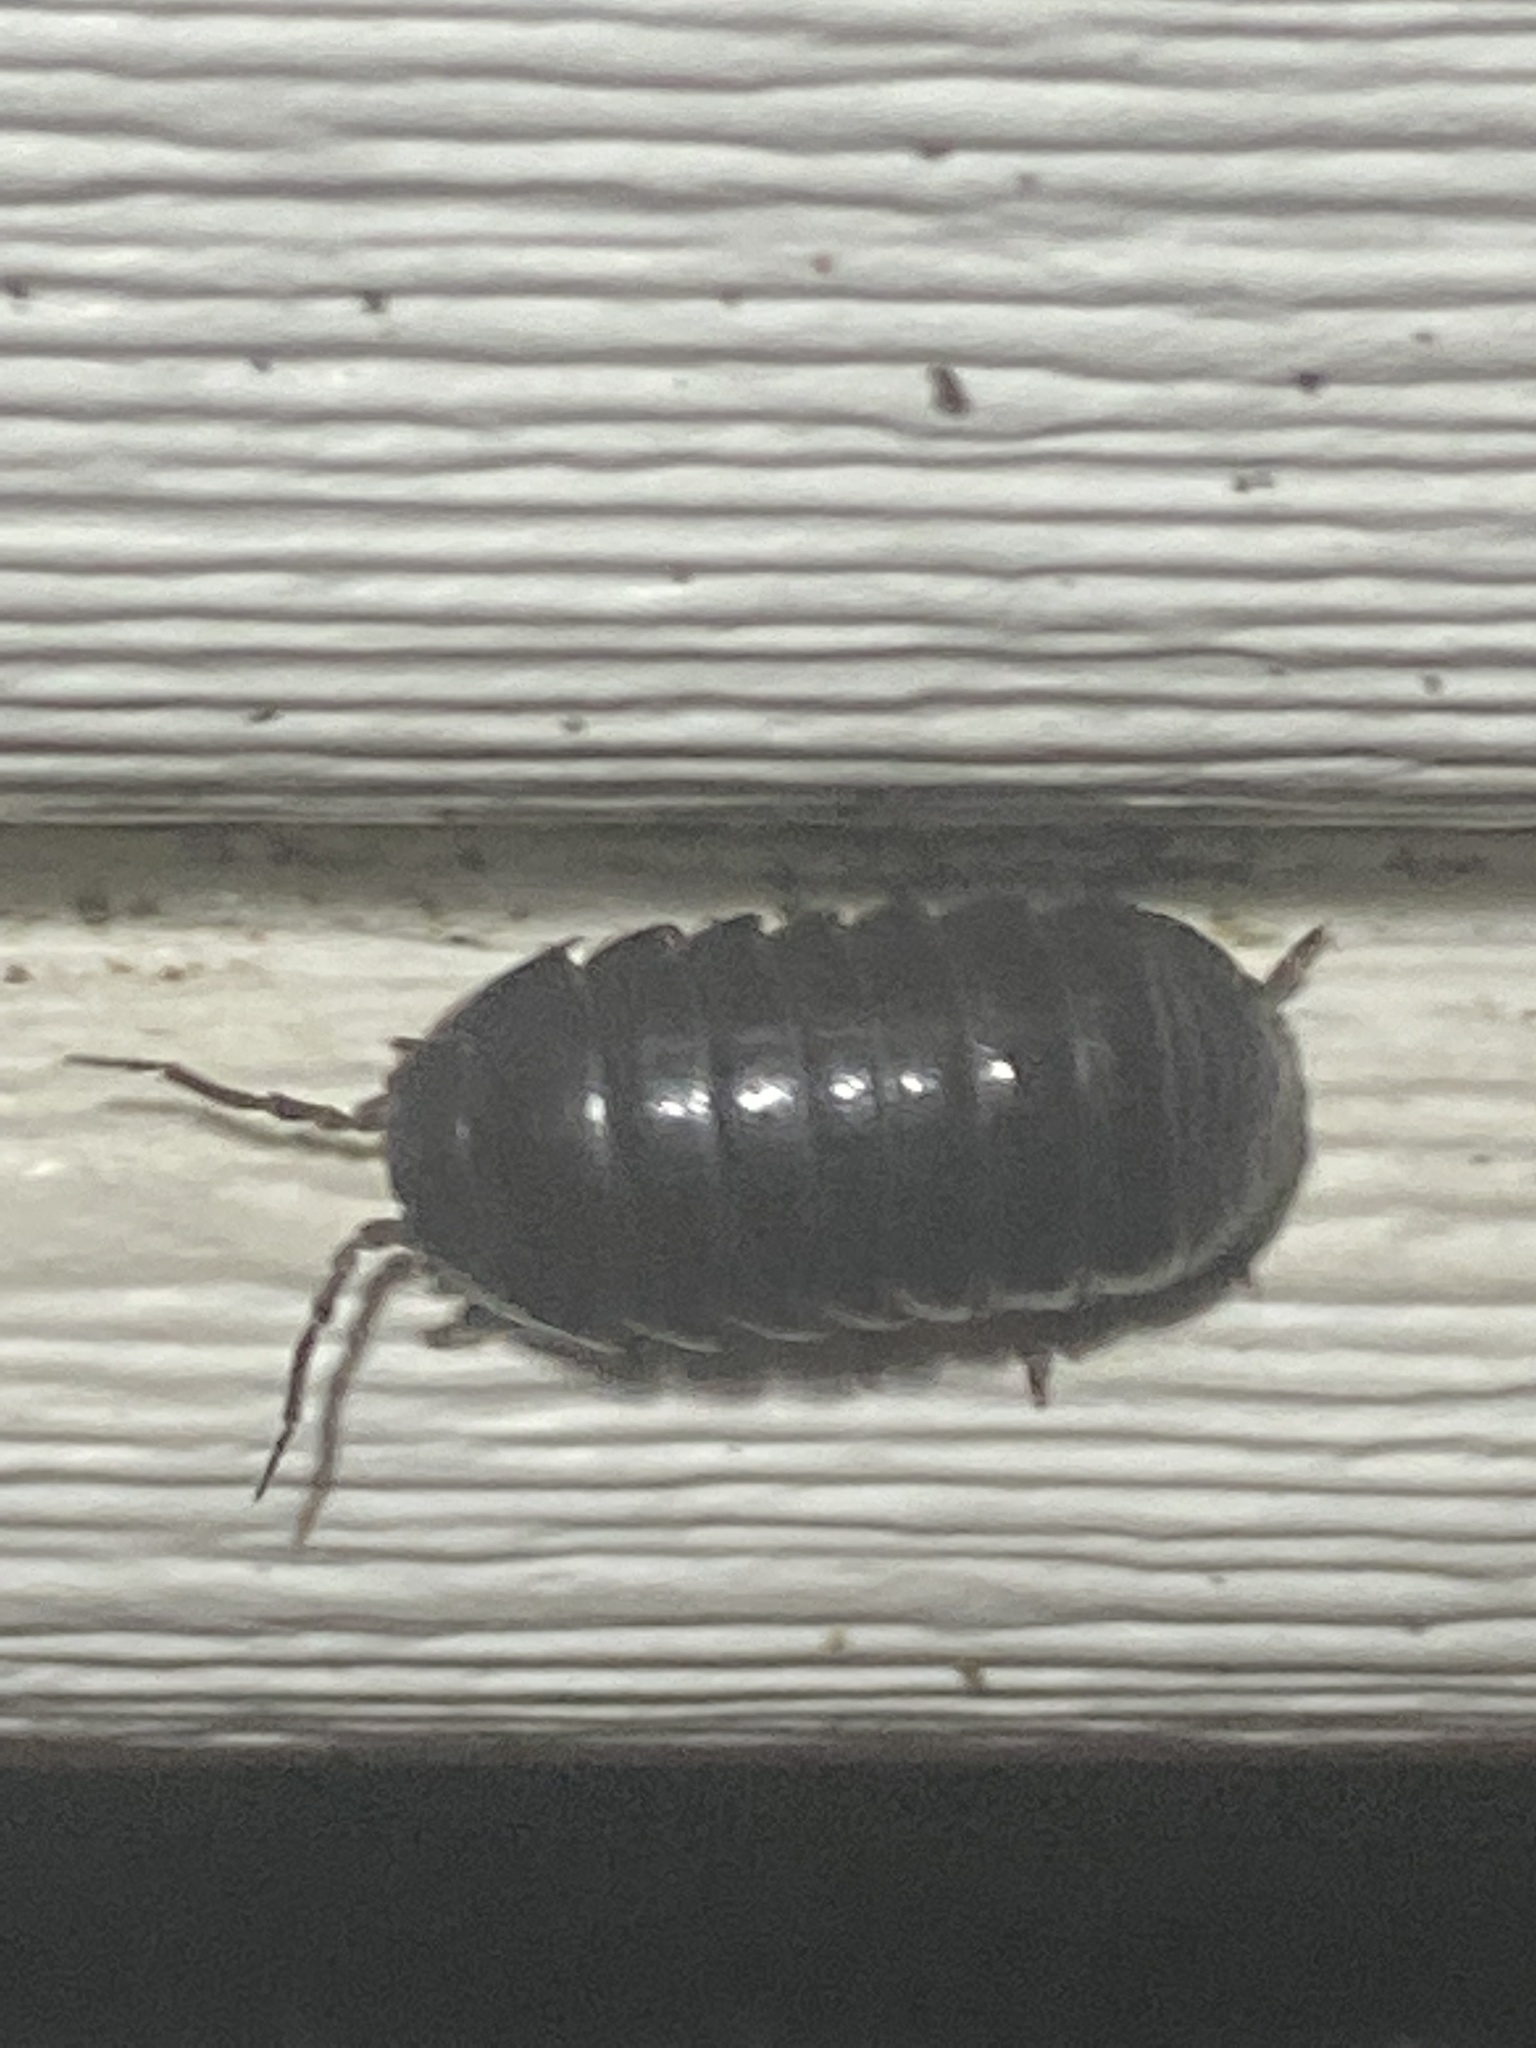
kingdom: Animalia
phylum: Arthropoda
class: Malacostraca
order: Isopoda
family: Armadillidiidae
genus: Armadillidium
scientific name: Armadillidium vulgare
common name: Common pill woodlouse
